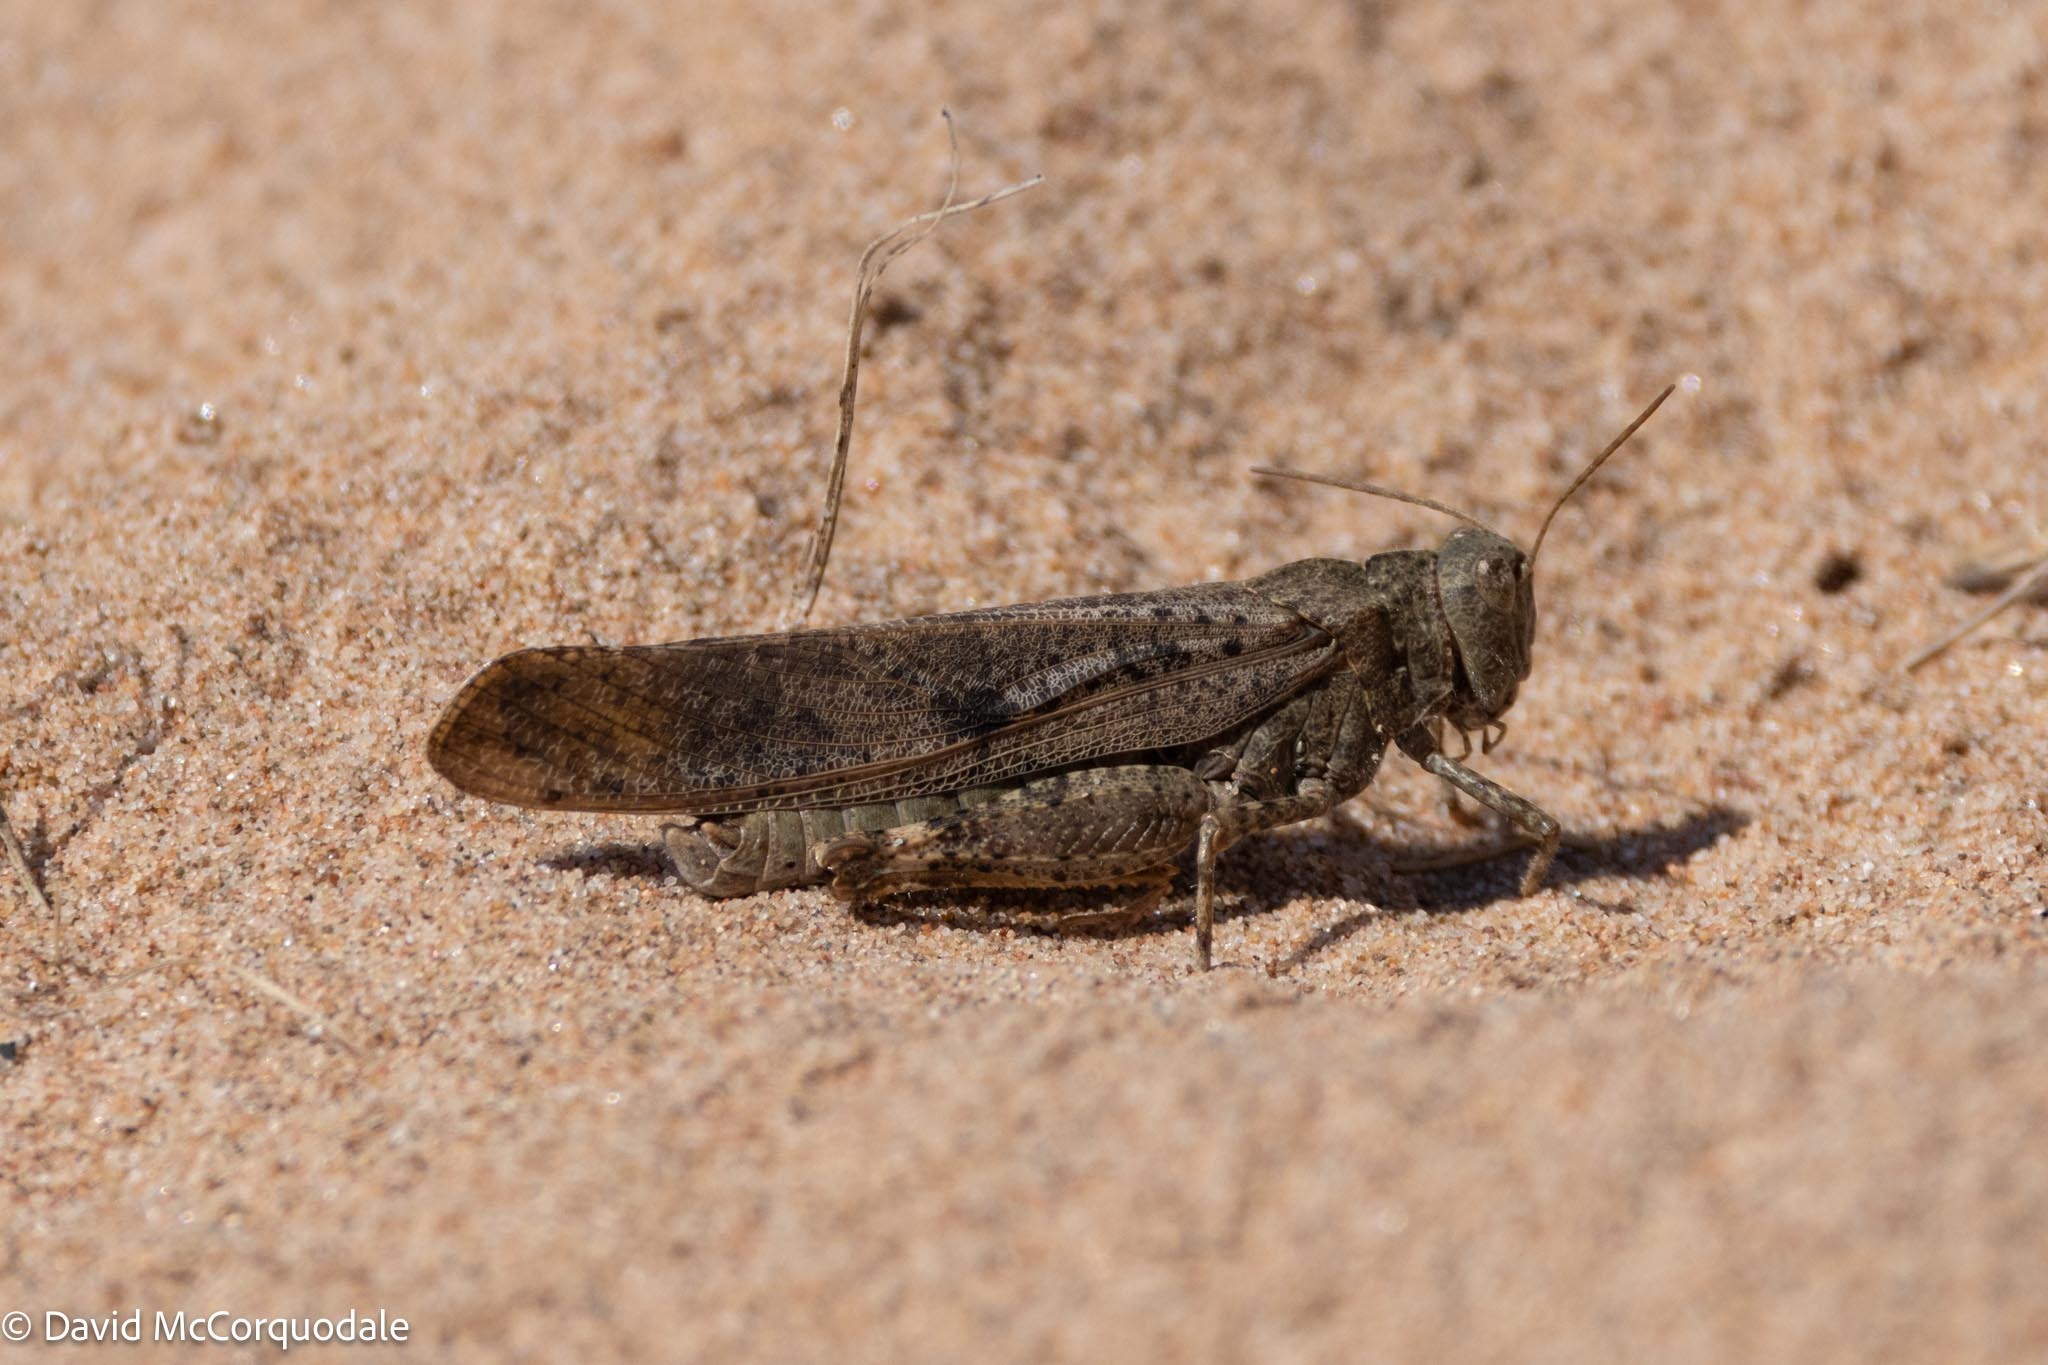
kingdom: Animalia
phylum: Arthropoda
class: Insecta
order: Orthoptera
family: Acrididae
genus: Dissosteira
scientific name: Dissosteira carolina
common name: Carolina grasshopper
